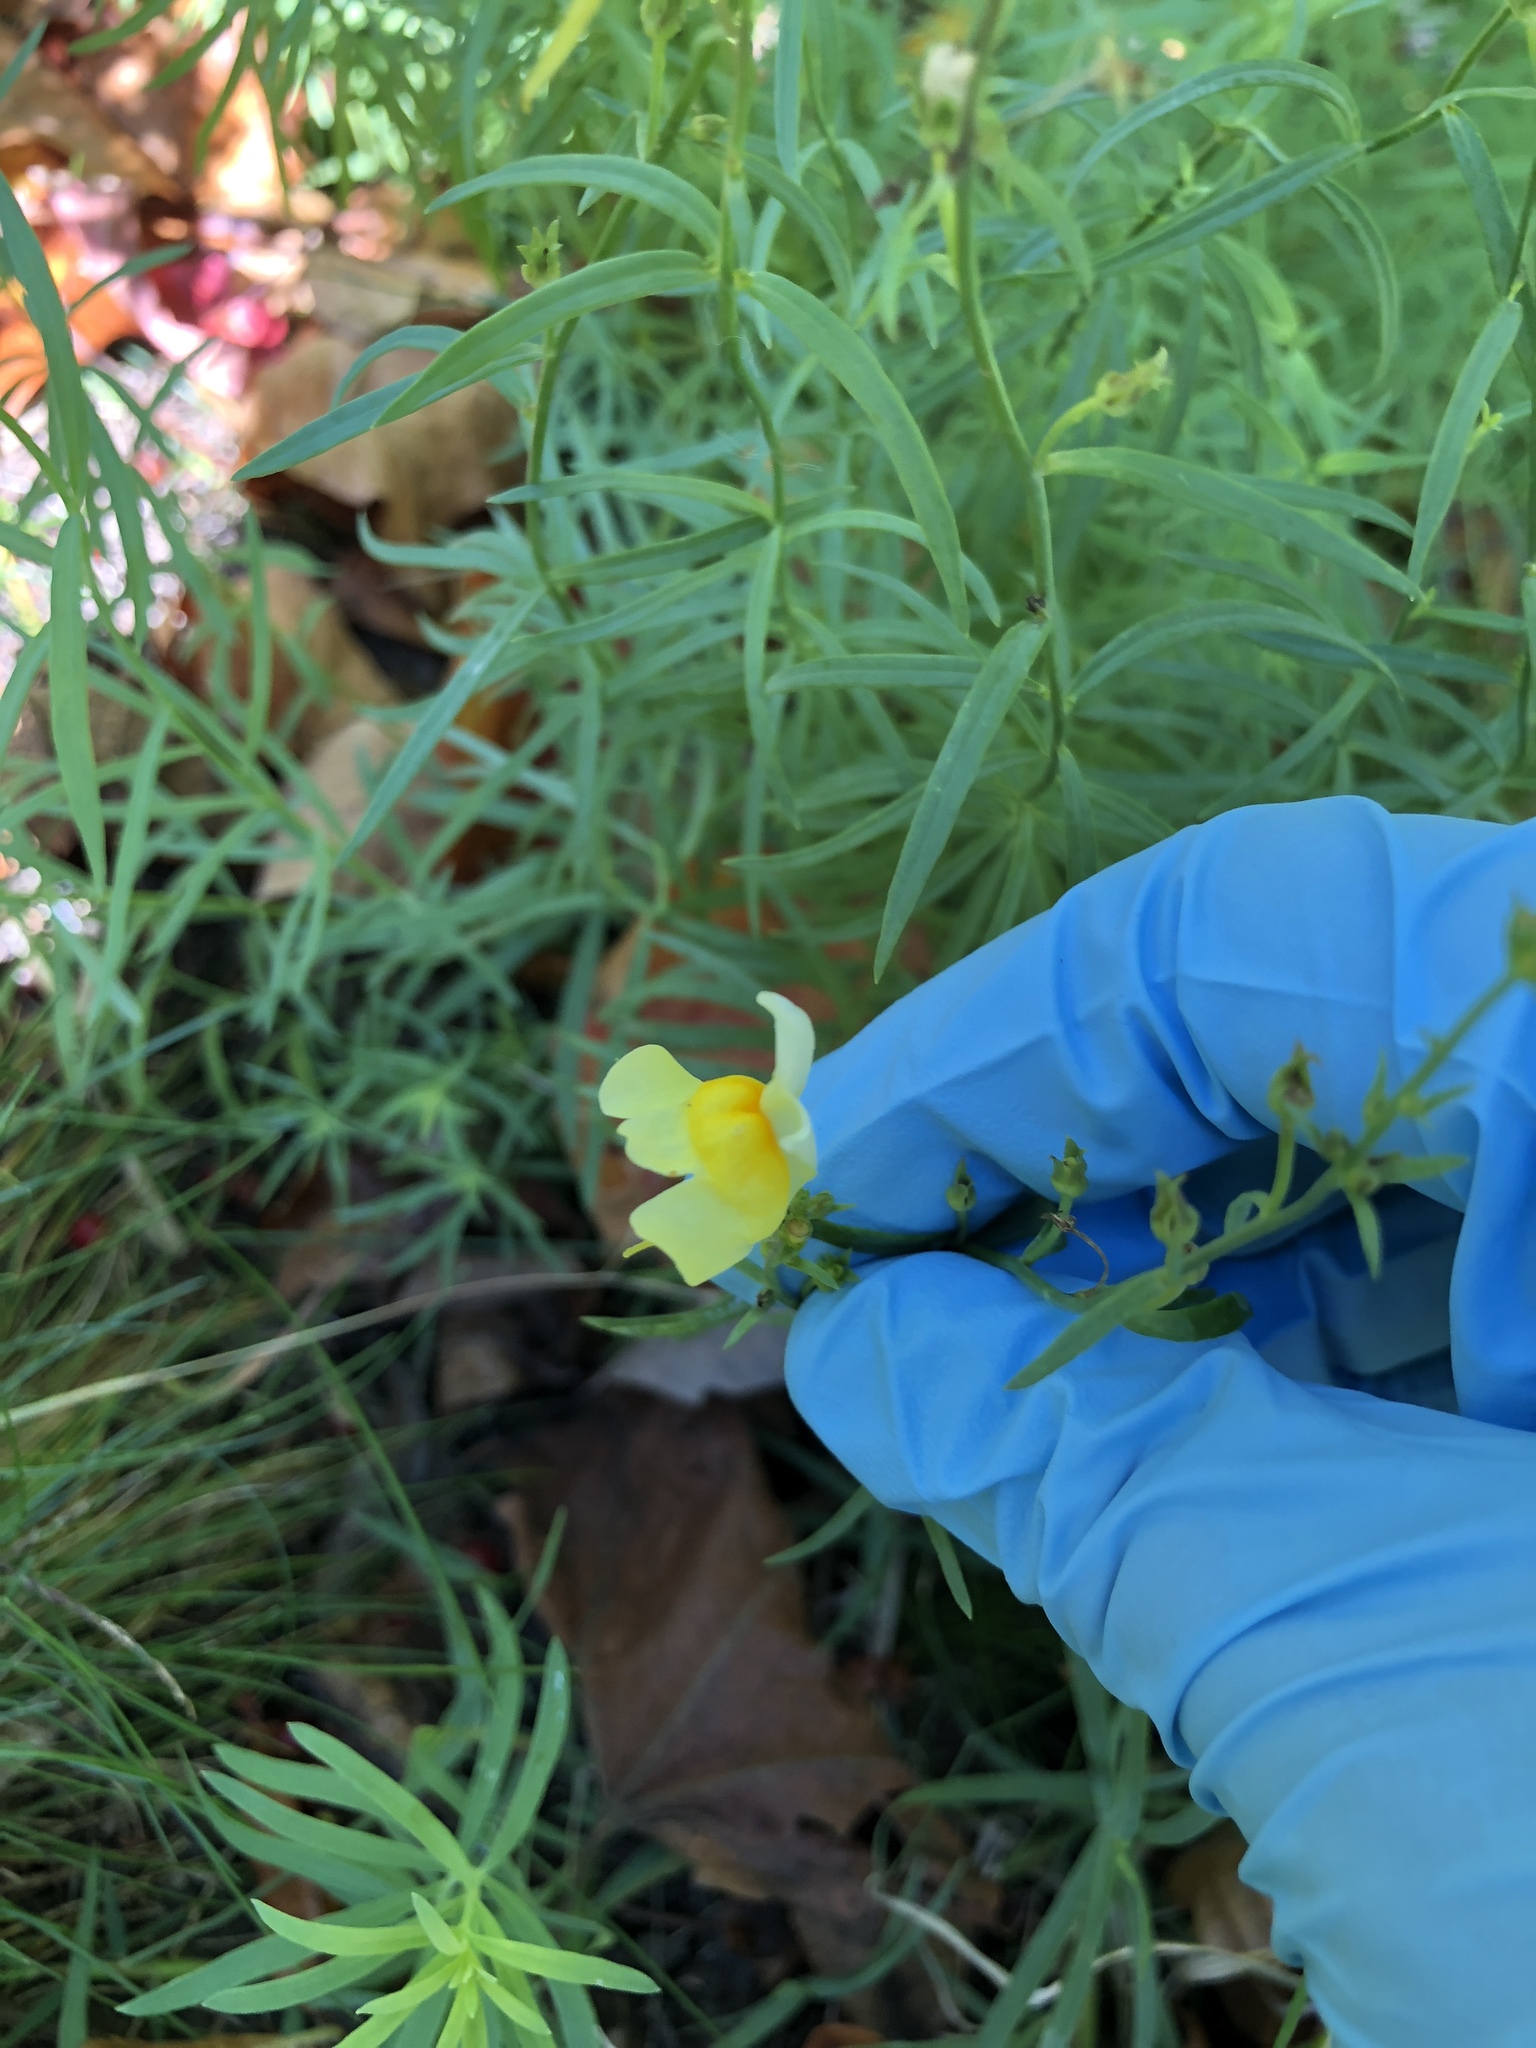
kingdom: Plantae
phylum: Tracheophyta
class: Magnoliopsida
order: Lamiales
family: Plantaginaceae
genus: Linaria
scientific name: Linaria vulgaris
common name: Butter and eggs
